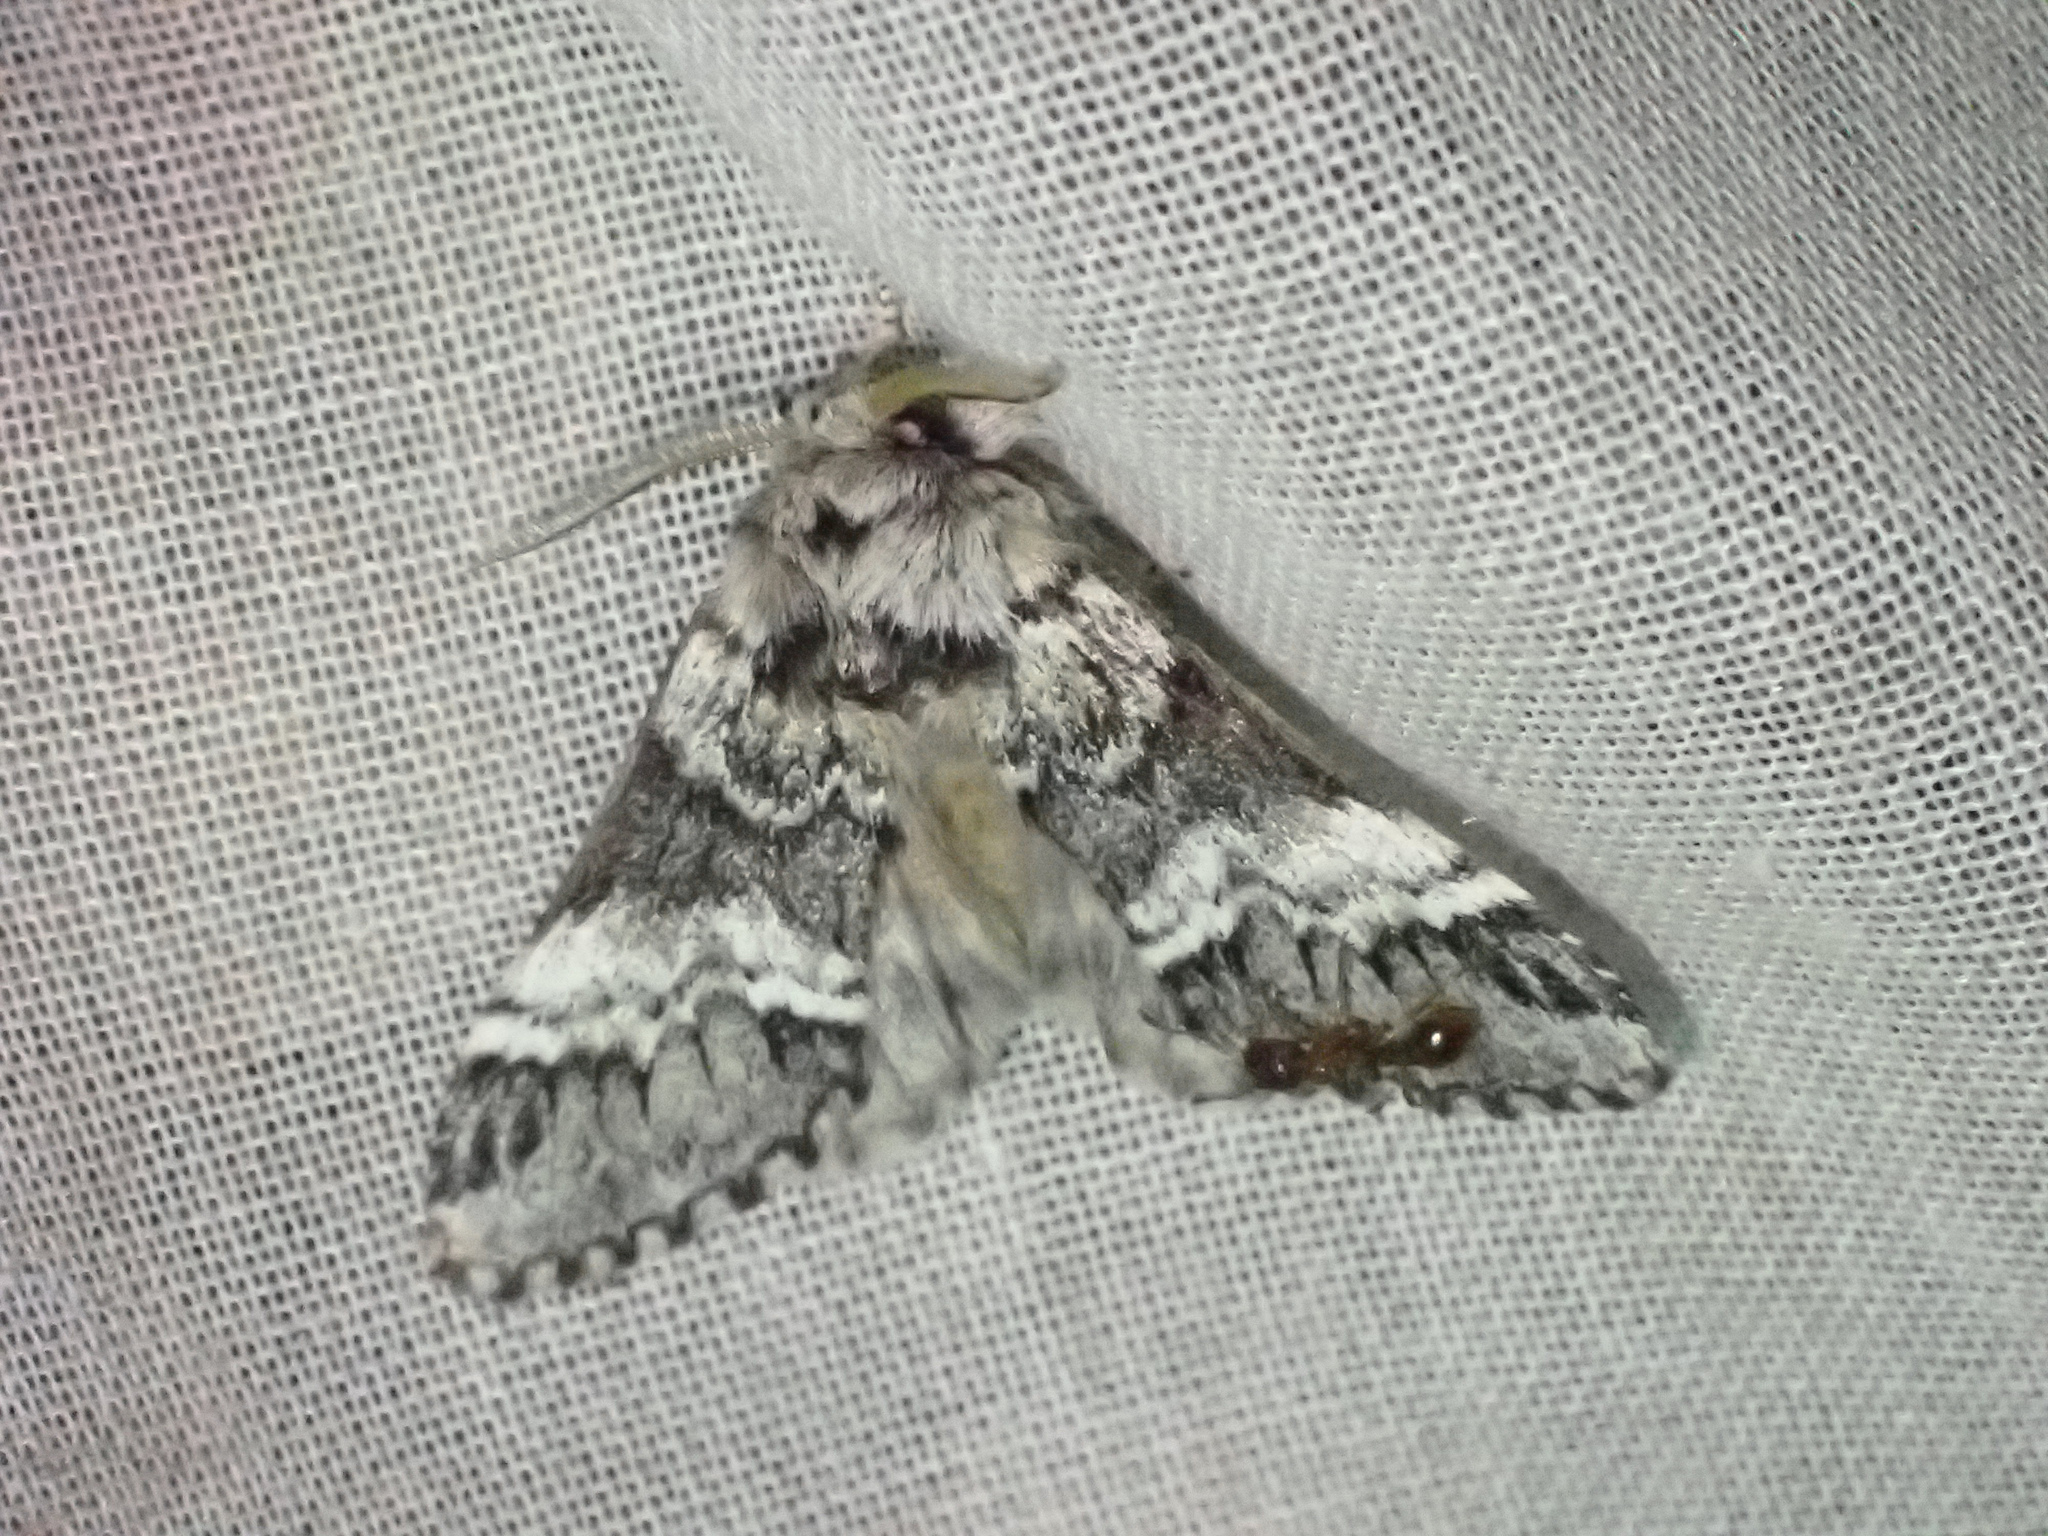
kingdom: Animalia
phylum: Arthropoda
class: Insecta
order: Lepidoptera
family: Notodontidae
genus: Drymonia
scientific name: Drymonia dodonaea
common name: Marbled brown
